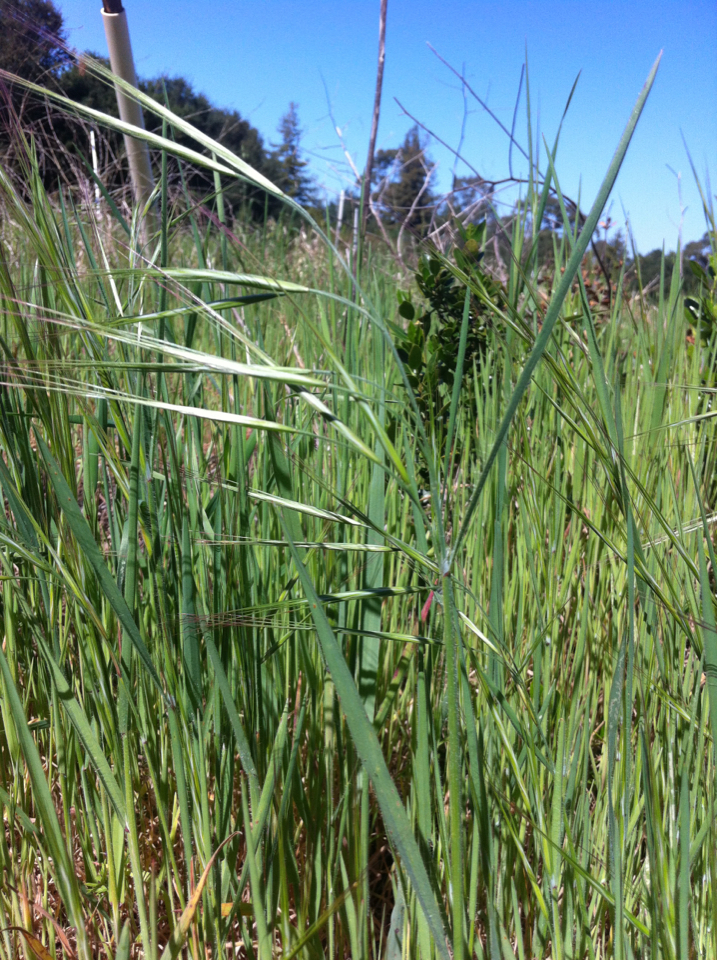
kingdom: Plantae
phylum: Tracheophyta
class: Liliopsida
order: Poales
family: Poaceae
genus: Bromus
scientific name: Bromus diandrus
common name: Ripgut brome
